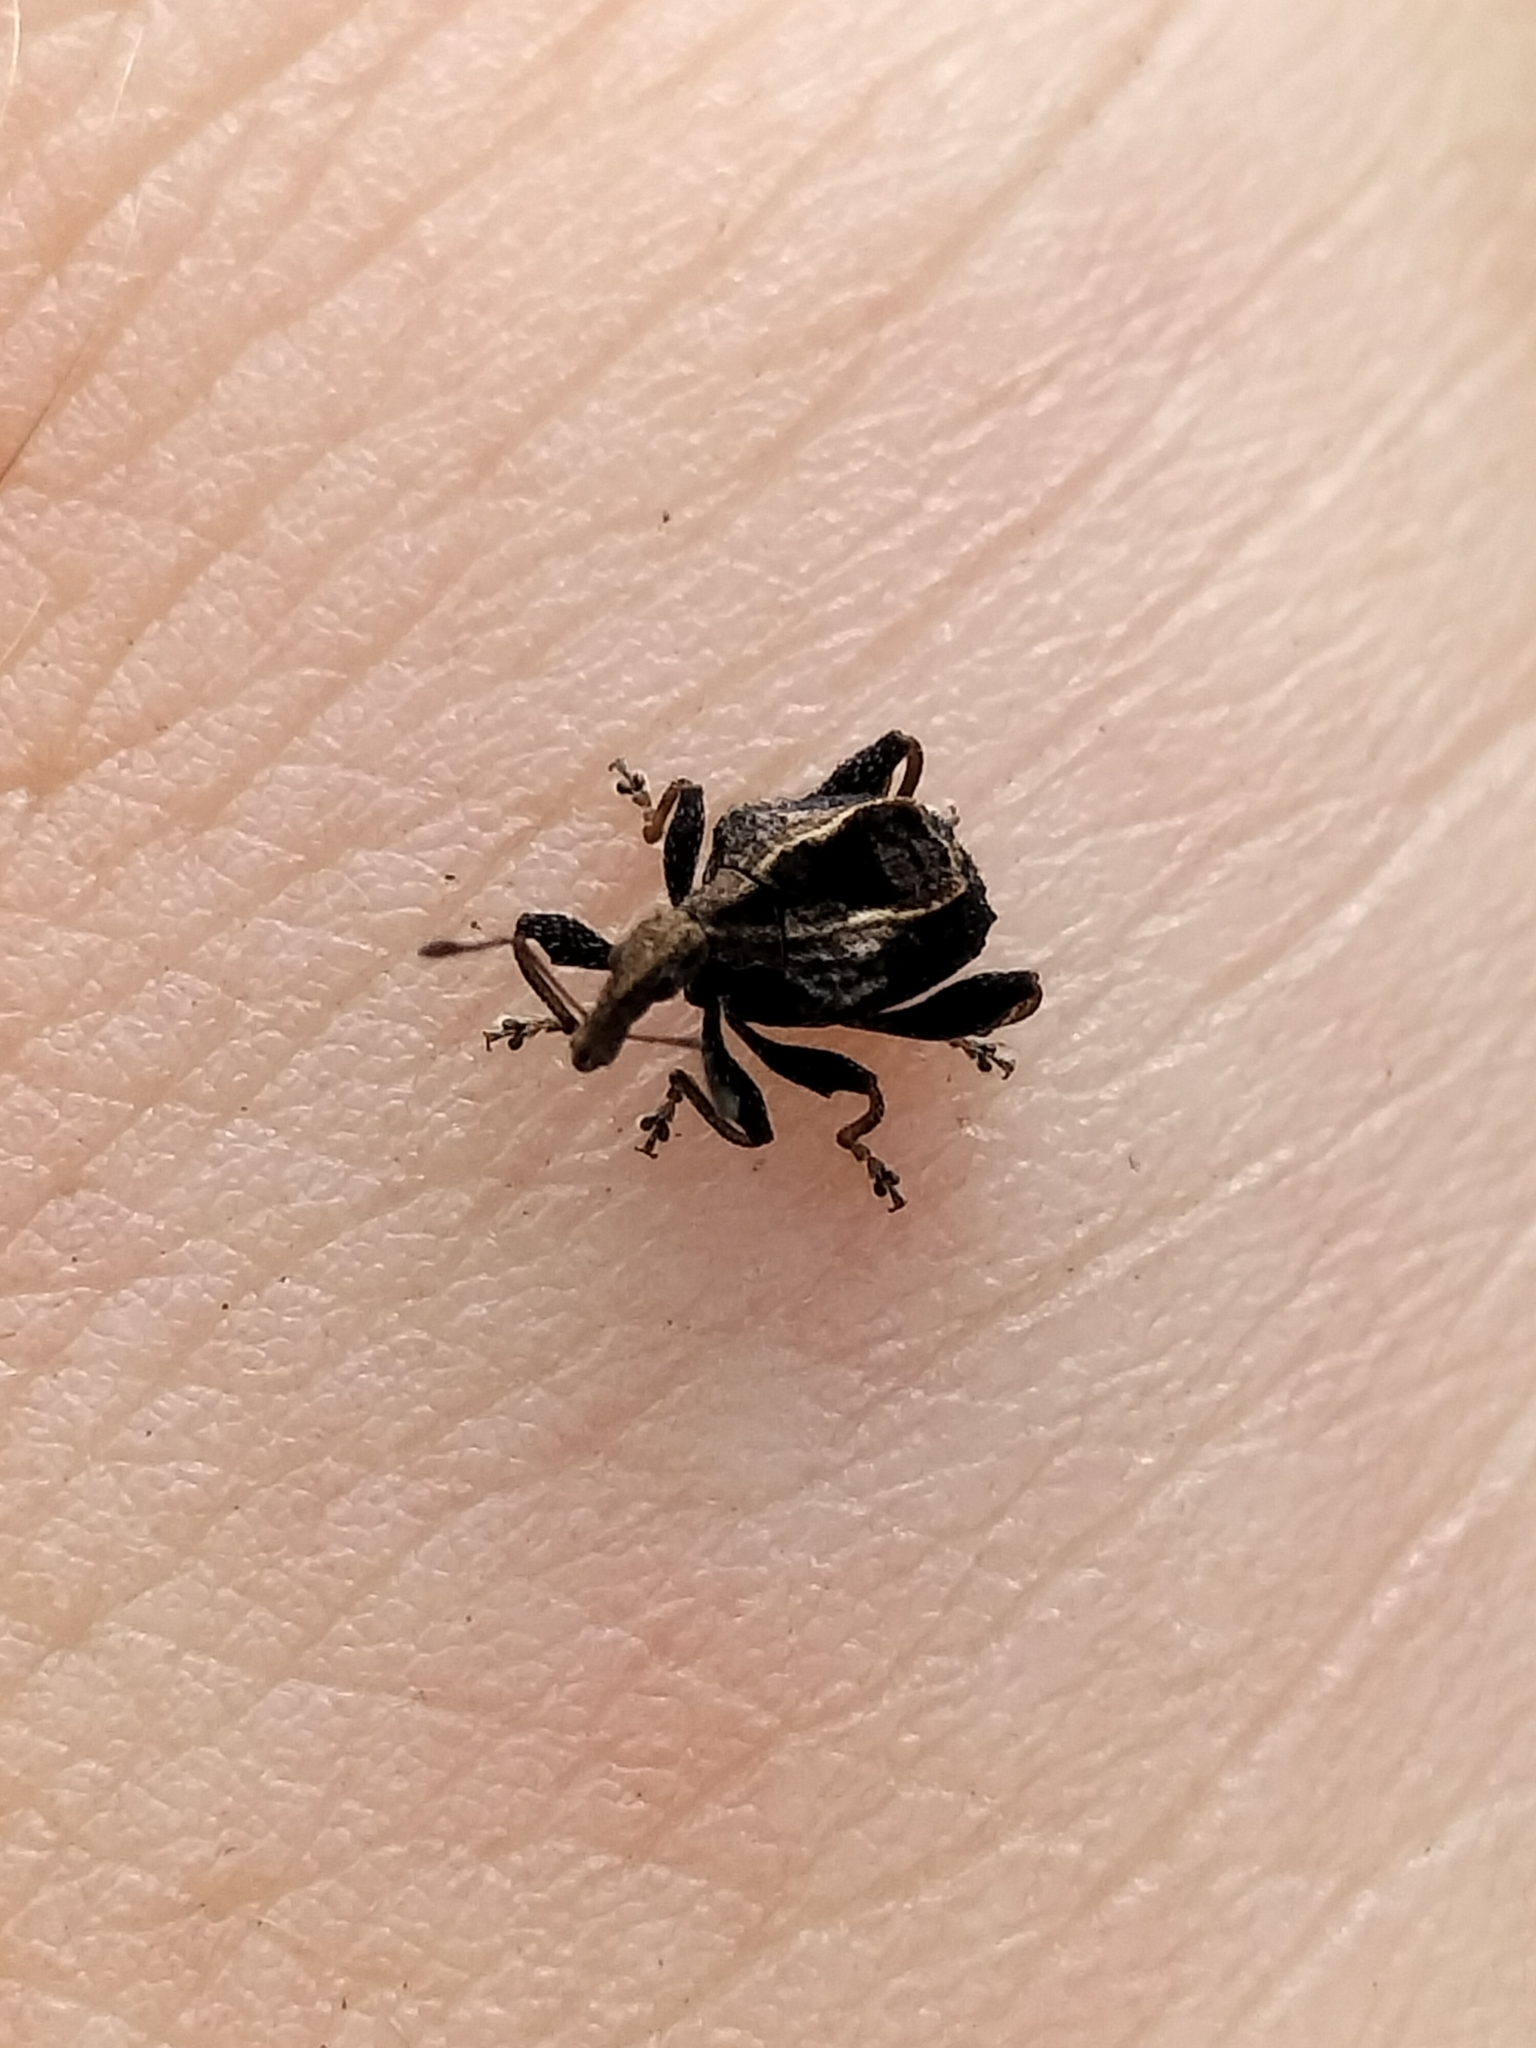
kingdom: Animalia
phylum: Arthropoda
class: Insecta
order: Coleoptera
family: Curculionidae
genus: Stephanorrhynchus
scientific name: Stephanorrhynchus crassus
